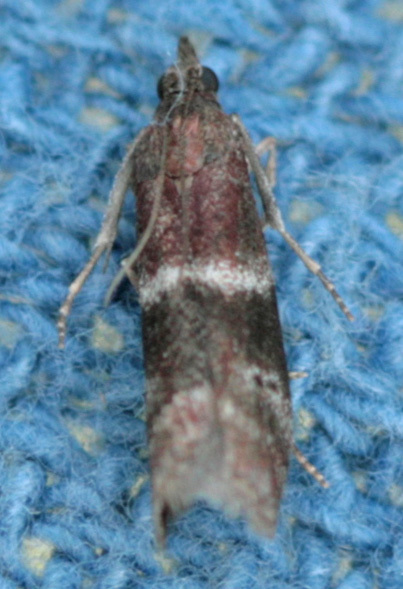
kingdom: Animalia
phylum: Arthropoda
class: Insecta
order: Lepidoptera
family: Pyralidae
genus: Moodna
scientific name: Moodna ostrinella
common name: Darker moodna moth
